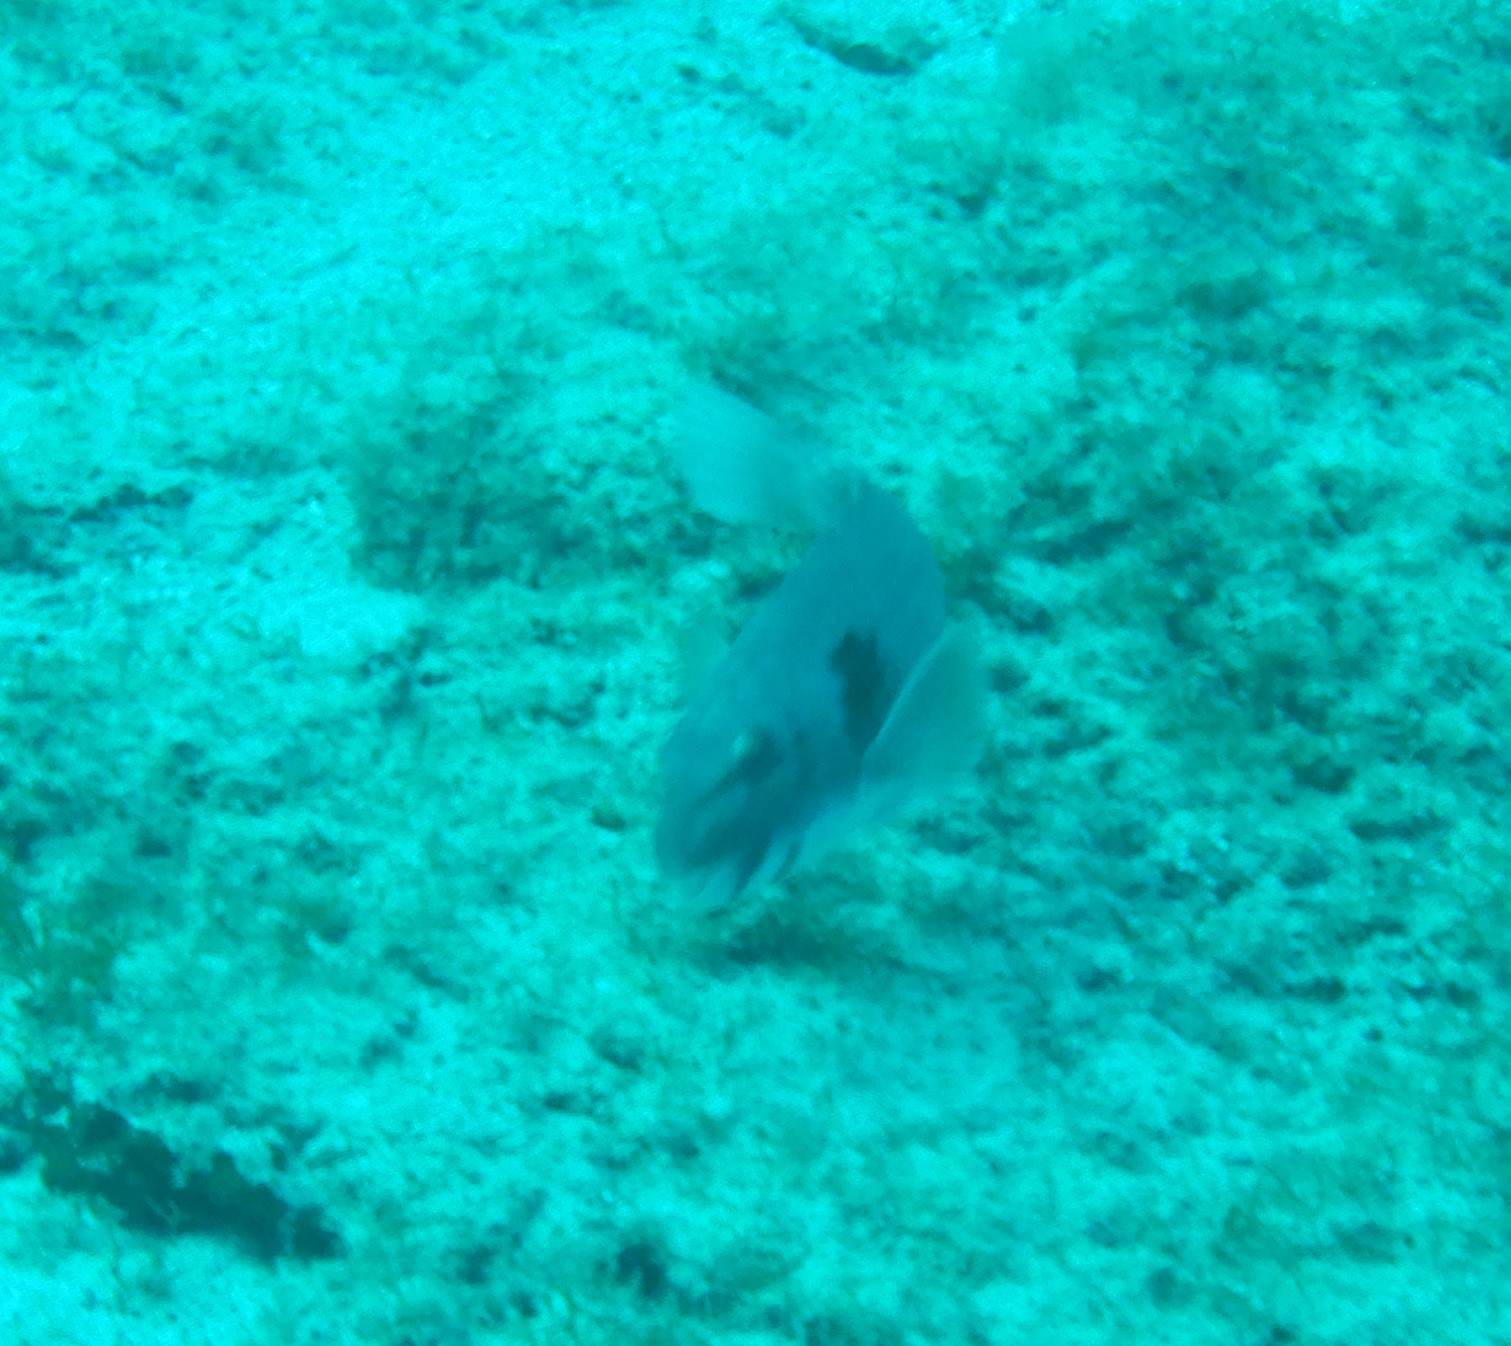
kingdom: Animalia
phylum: Chordata
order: Perciformes
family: Scaridae
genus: Sparisoma
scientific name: Sparisoma cretense
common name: Parrotfish
